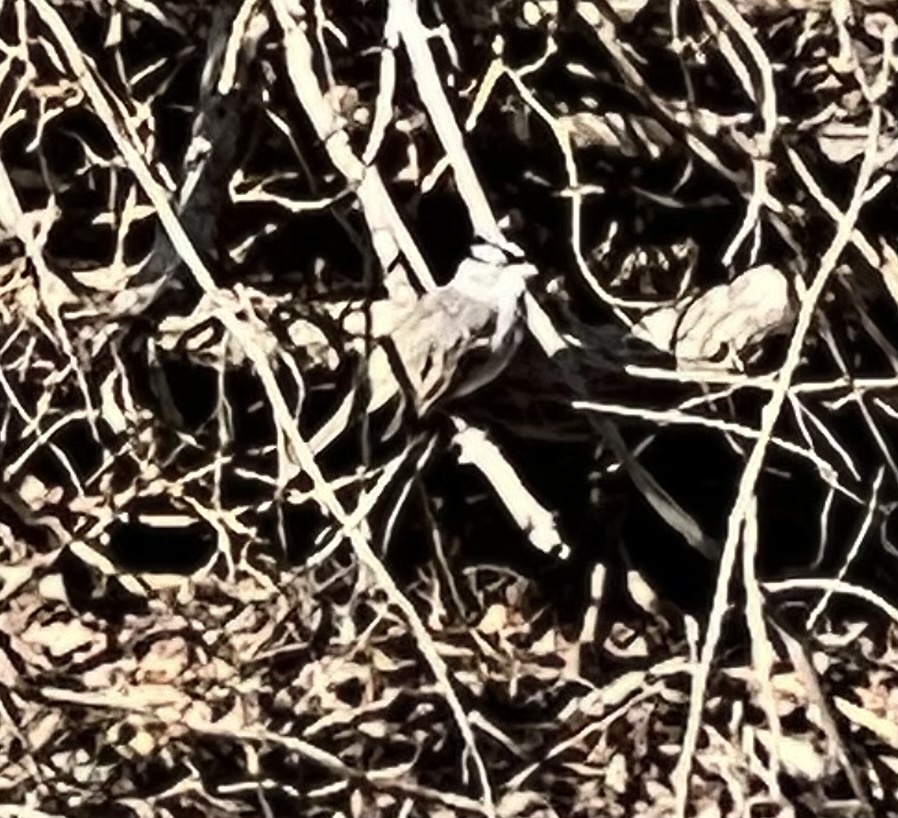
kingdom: Animalia
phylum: Chordata
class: Aves
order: Passeriformes
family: Passerellidae
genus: Zonotrichia
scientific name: Zonotrichia leucophrys
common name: White-crowned sparrow
